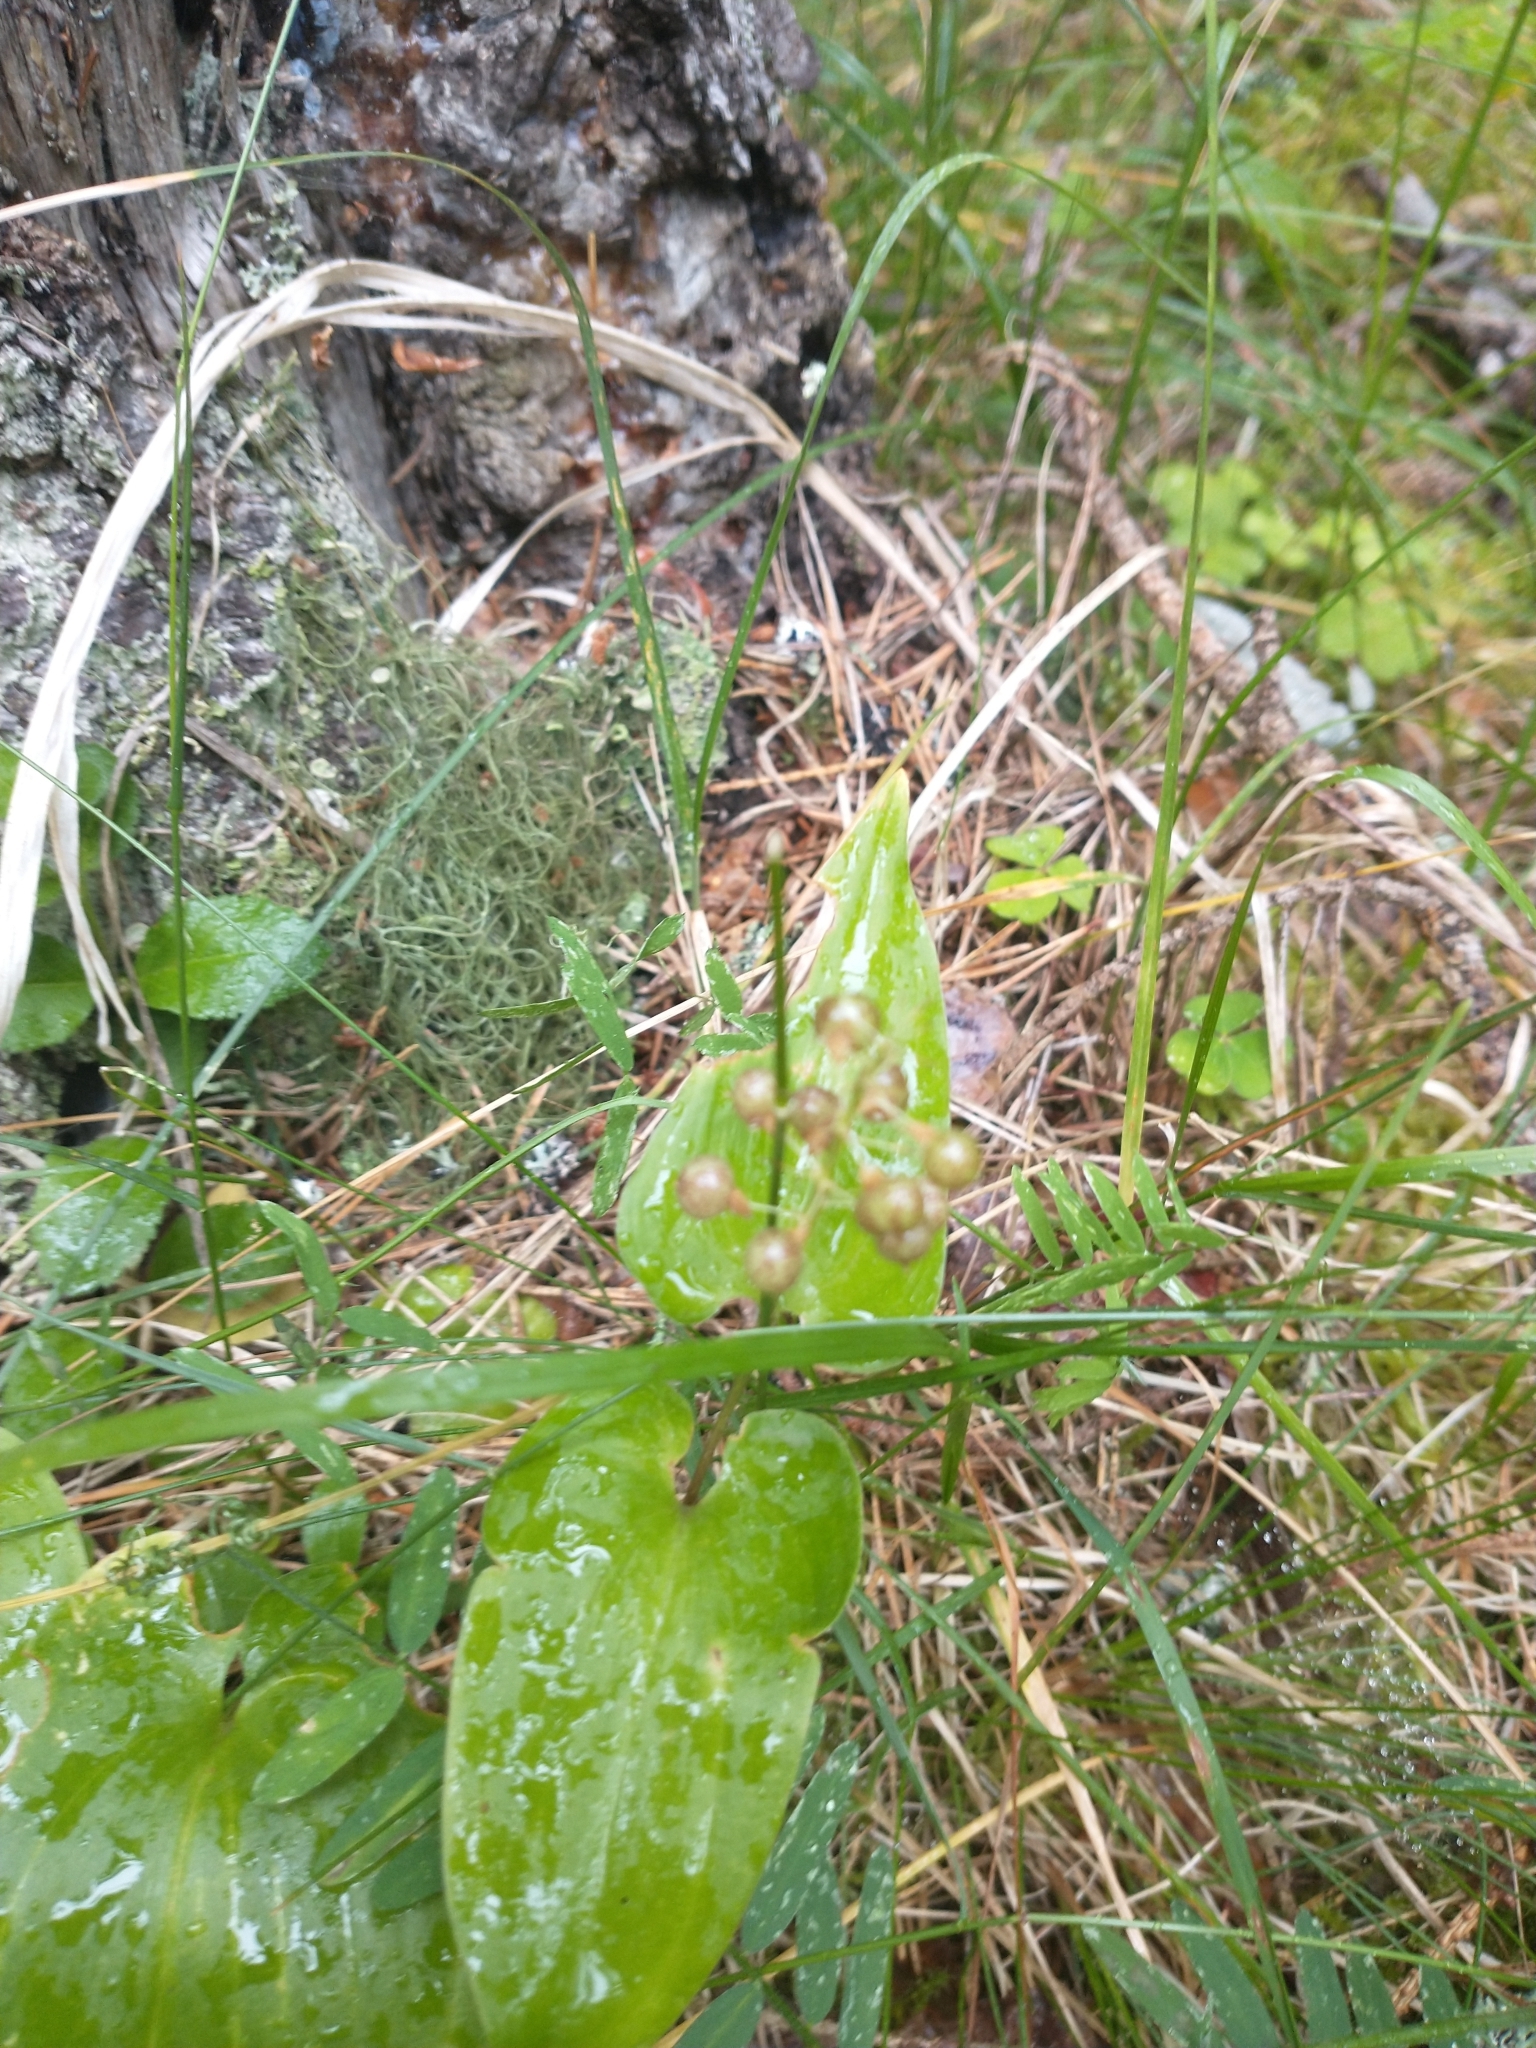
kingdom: Plantae
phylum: Tracheophyta
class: Liliopsida
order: Asparagales
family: Asparagaceae
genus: Maianthemum
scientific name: Maianthemum bifolium
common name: May lily
